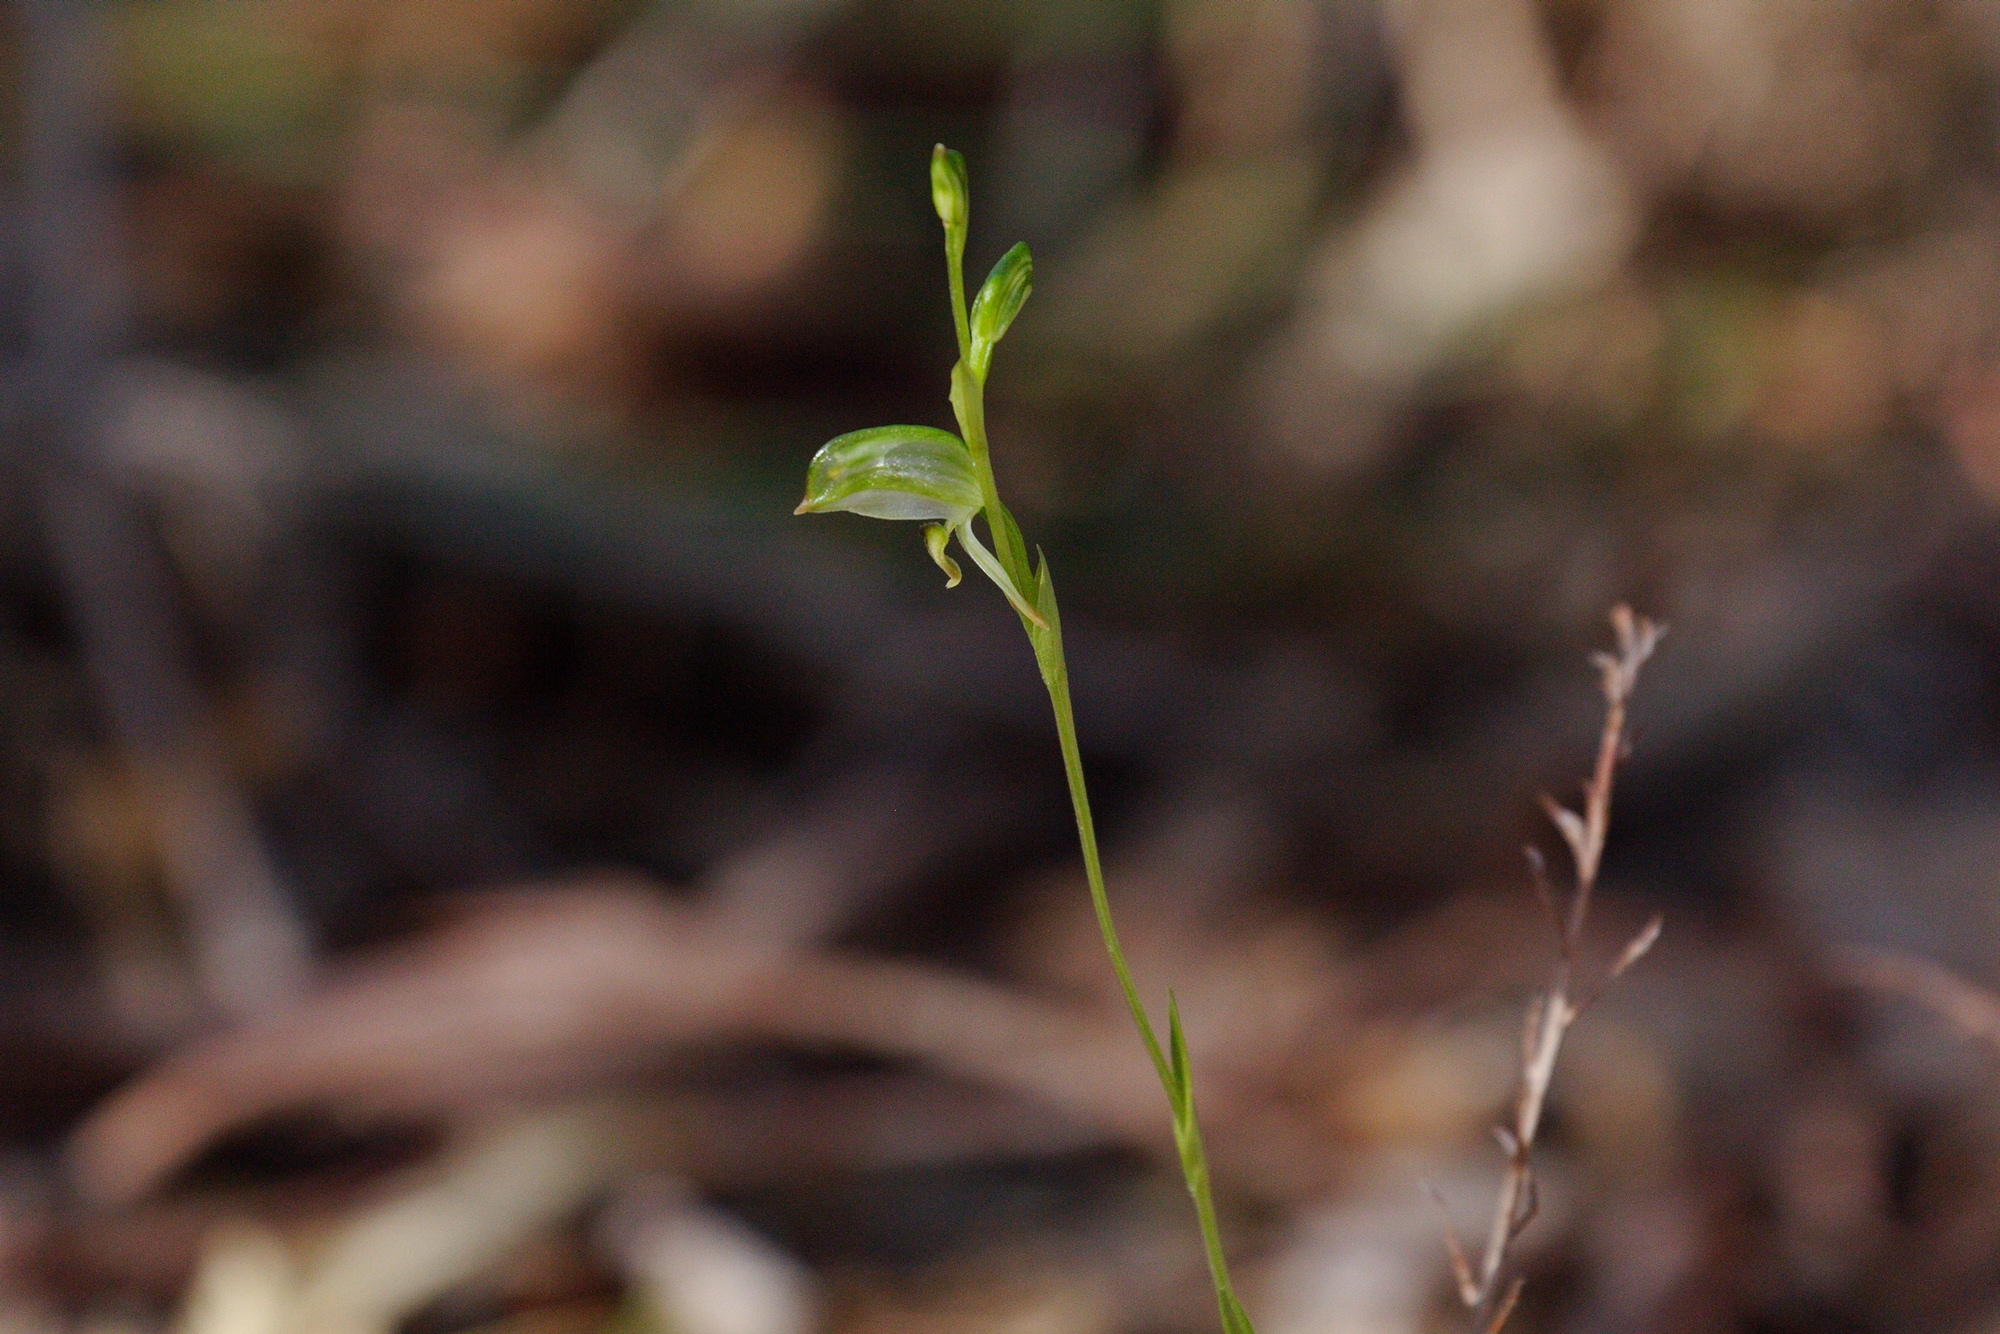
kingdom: Plantae
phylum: Tracheophyta
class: Liliopsida
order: Asparagales
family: Orchidaceae
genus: Pterostylis
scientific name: Pterostylis melagramma
